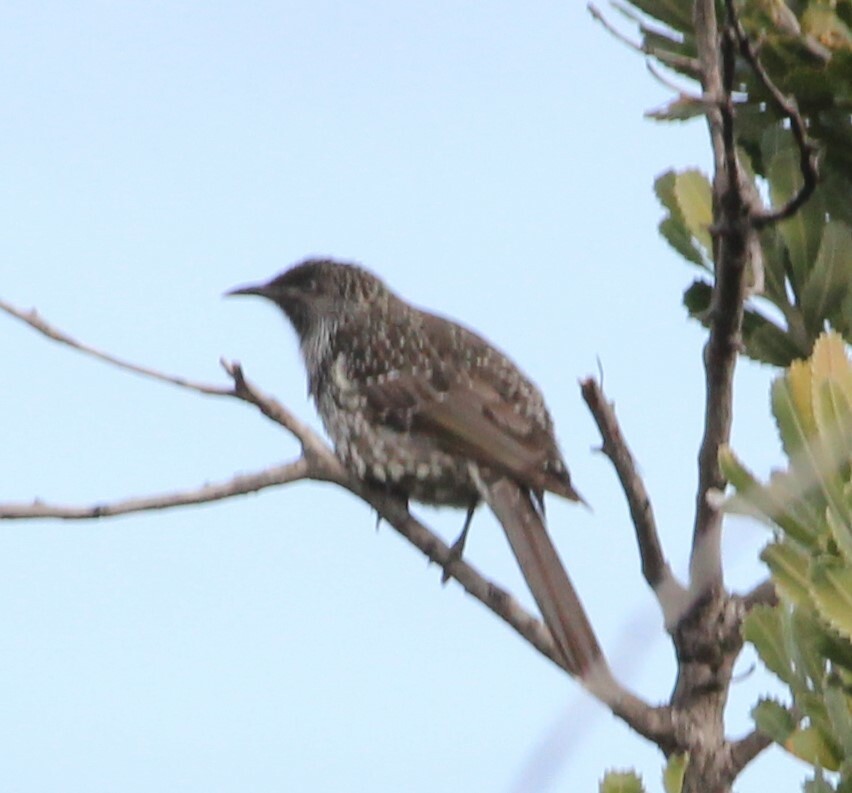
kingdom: Animalia
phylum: Chordata
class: Aves
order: Passeriformes
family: Meliphagidae
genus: Anthochaera
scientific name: Anthochaera chrysoptera
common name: Little wattlebird
